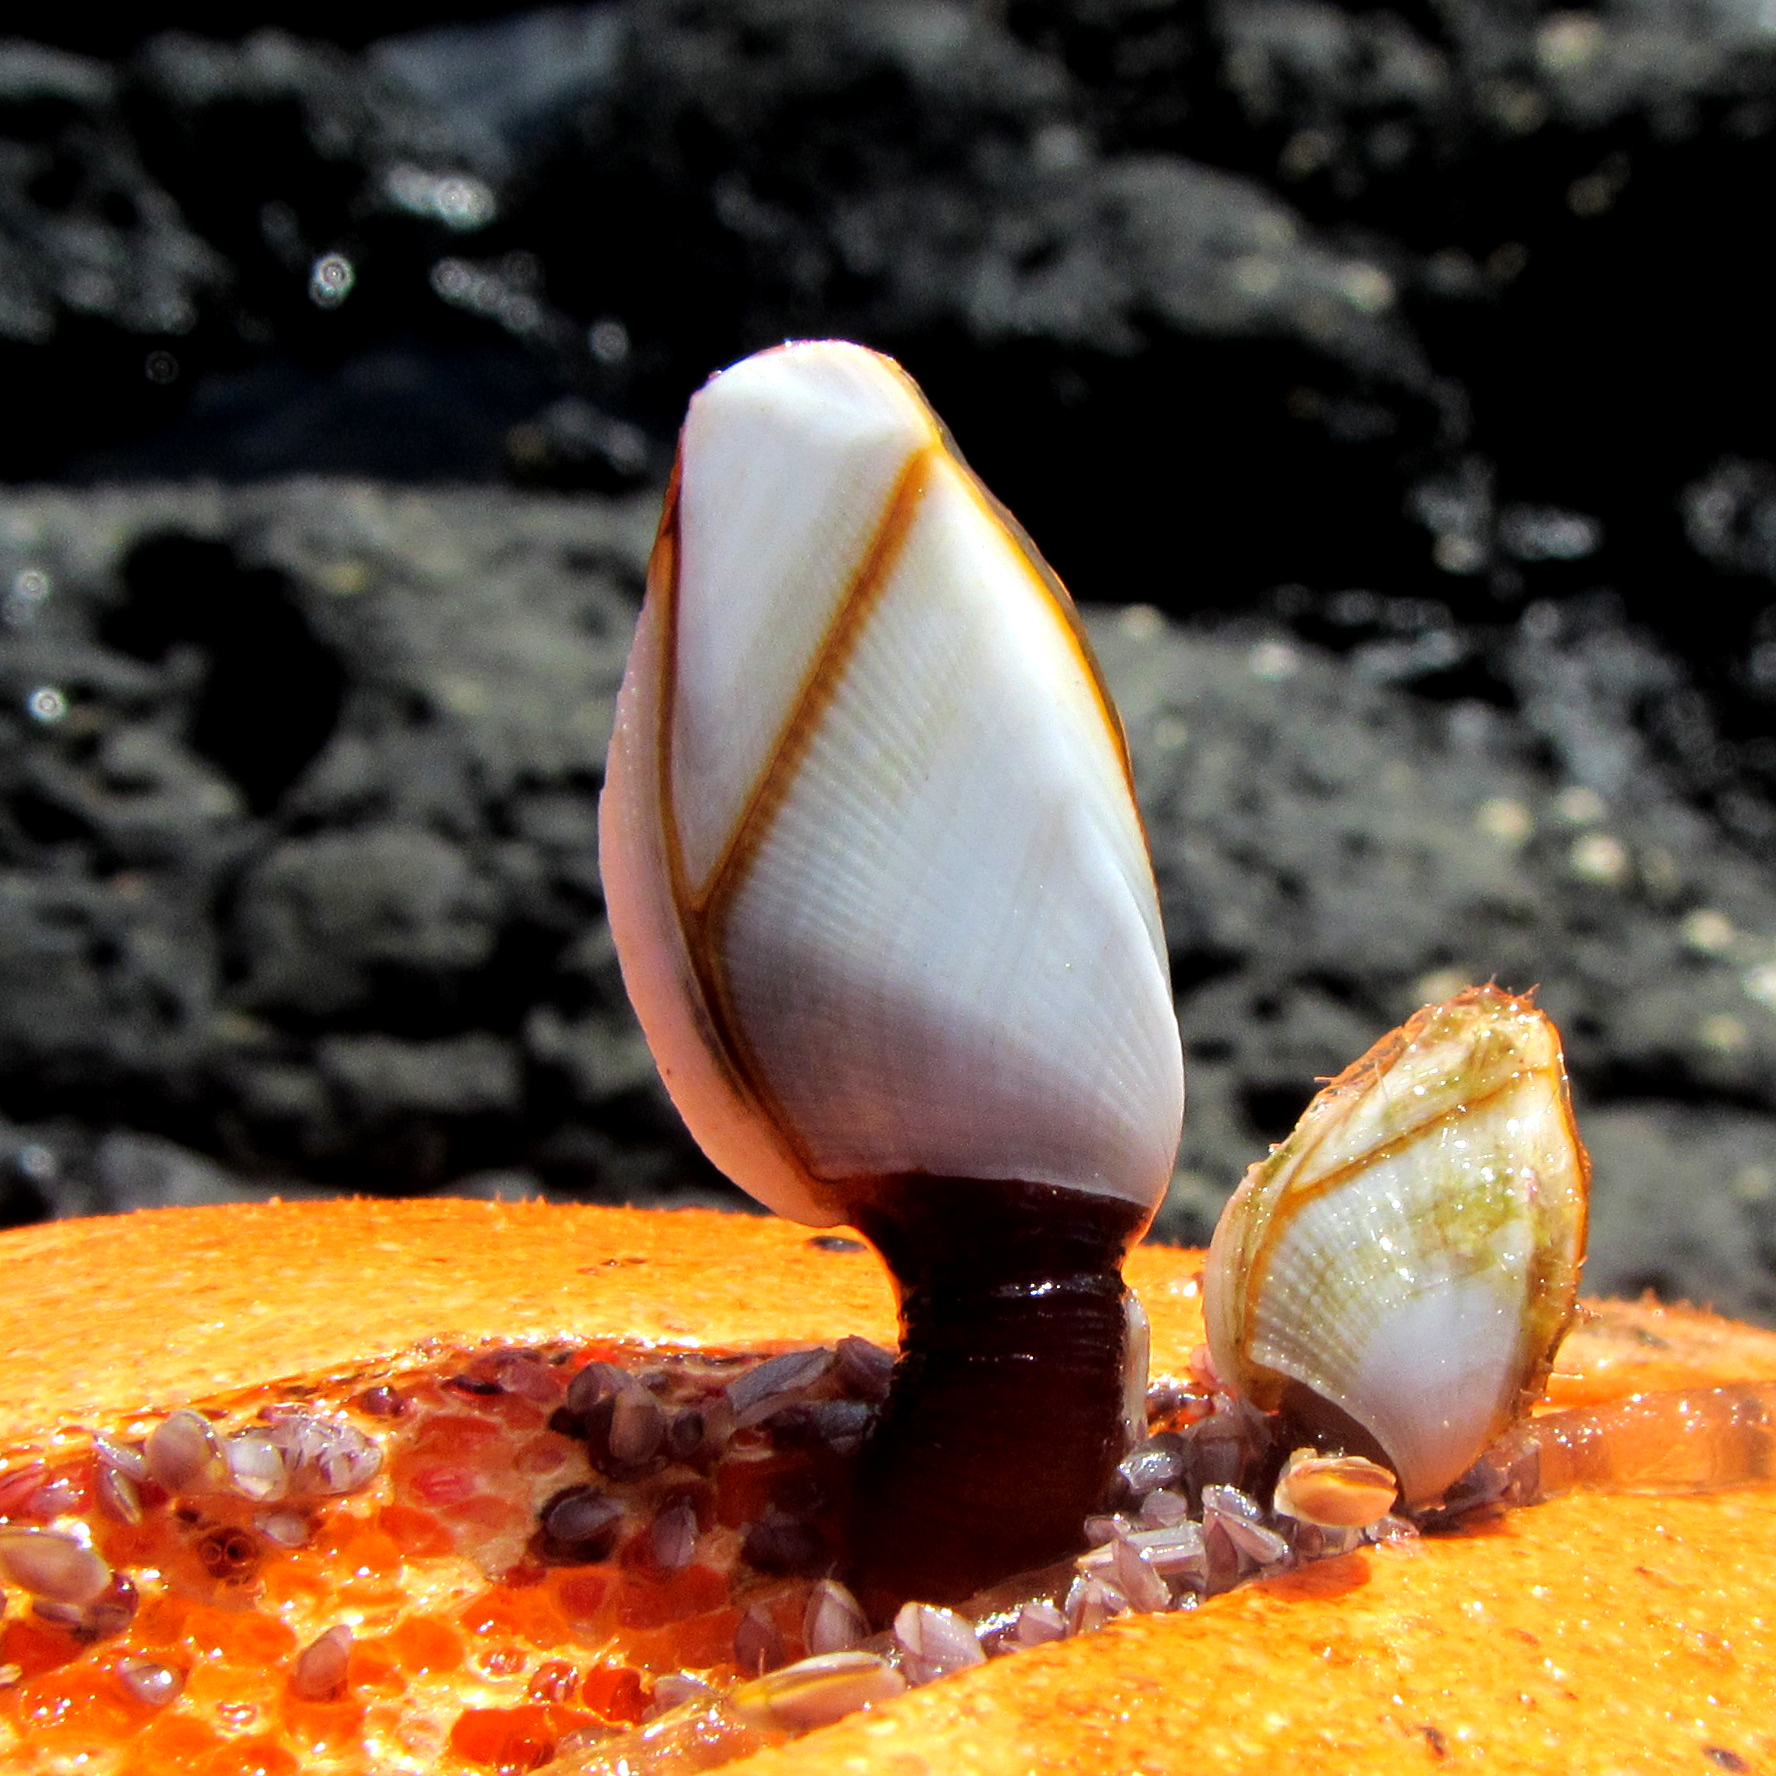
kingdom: Animalia
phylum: Arthropoda
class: Maxillopoda
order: Pedunculata
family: Lepadidae
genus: Lepas
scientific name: Lepas anserifera
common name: Goose barnacle
